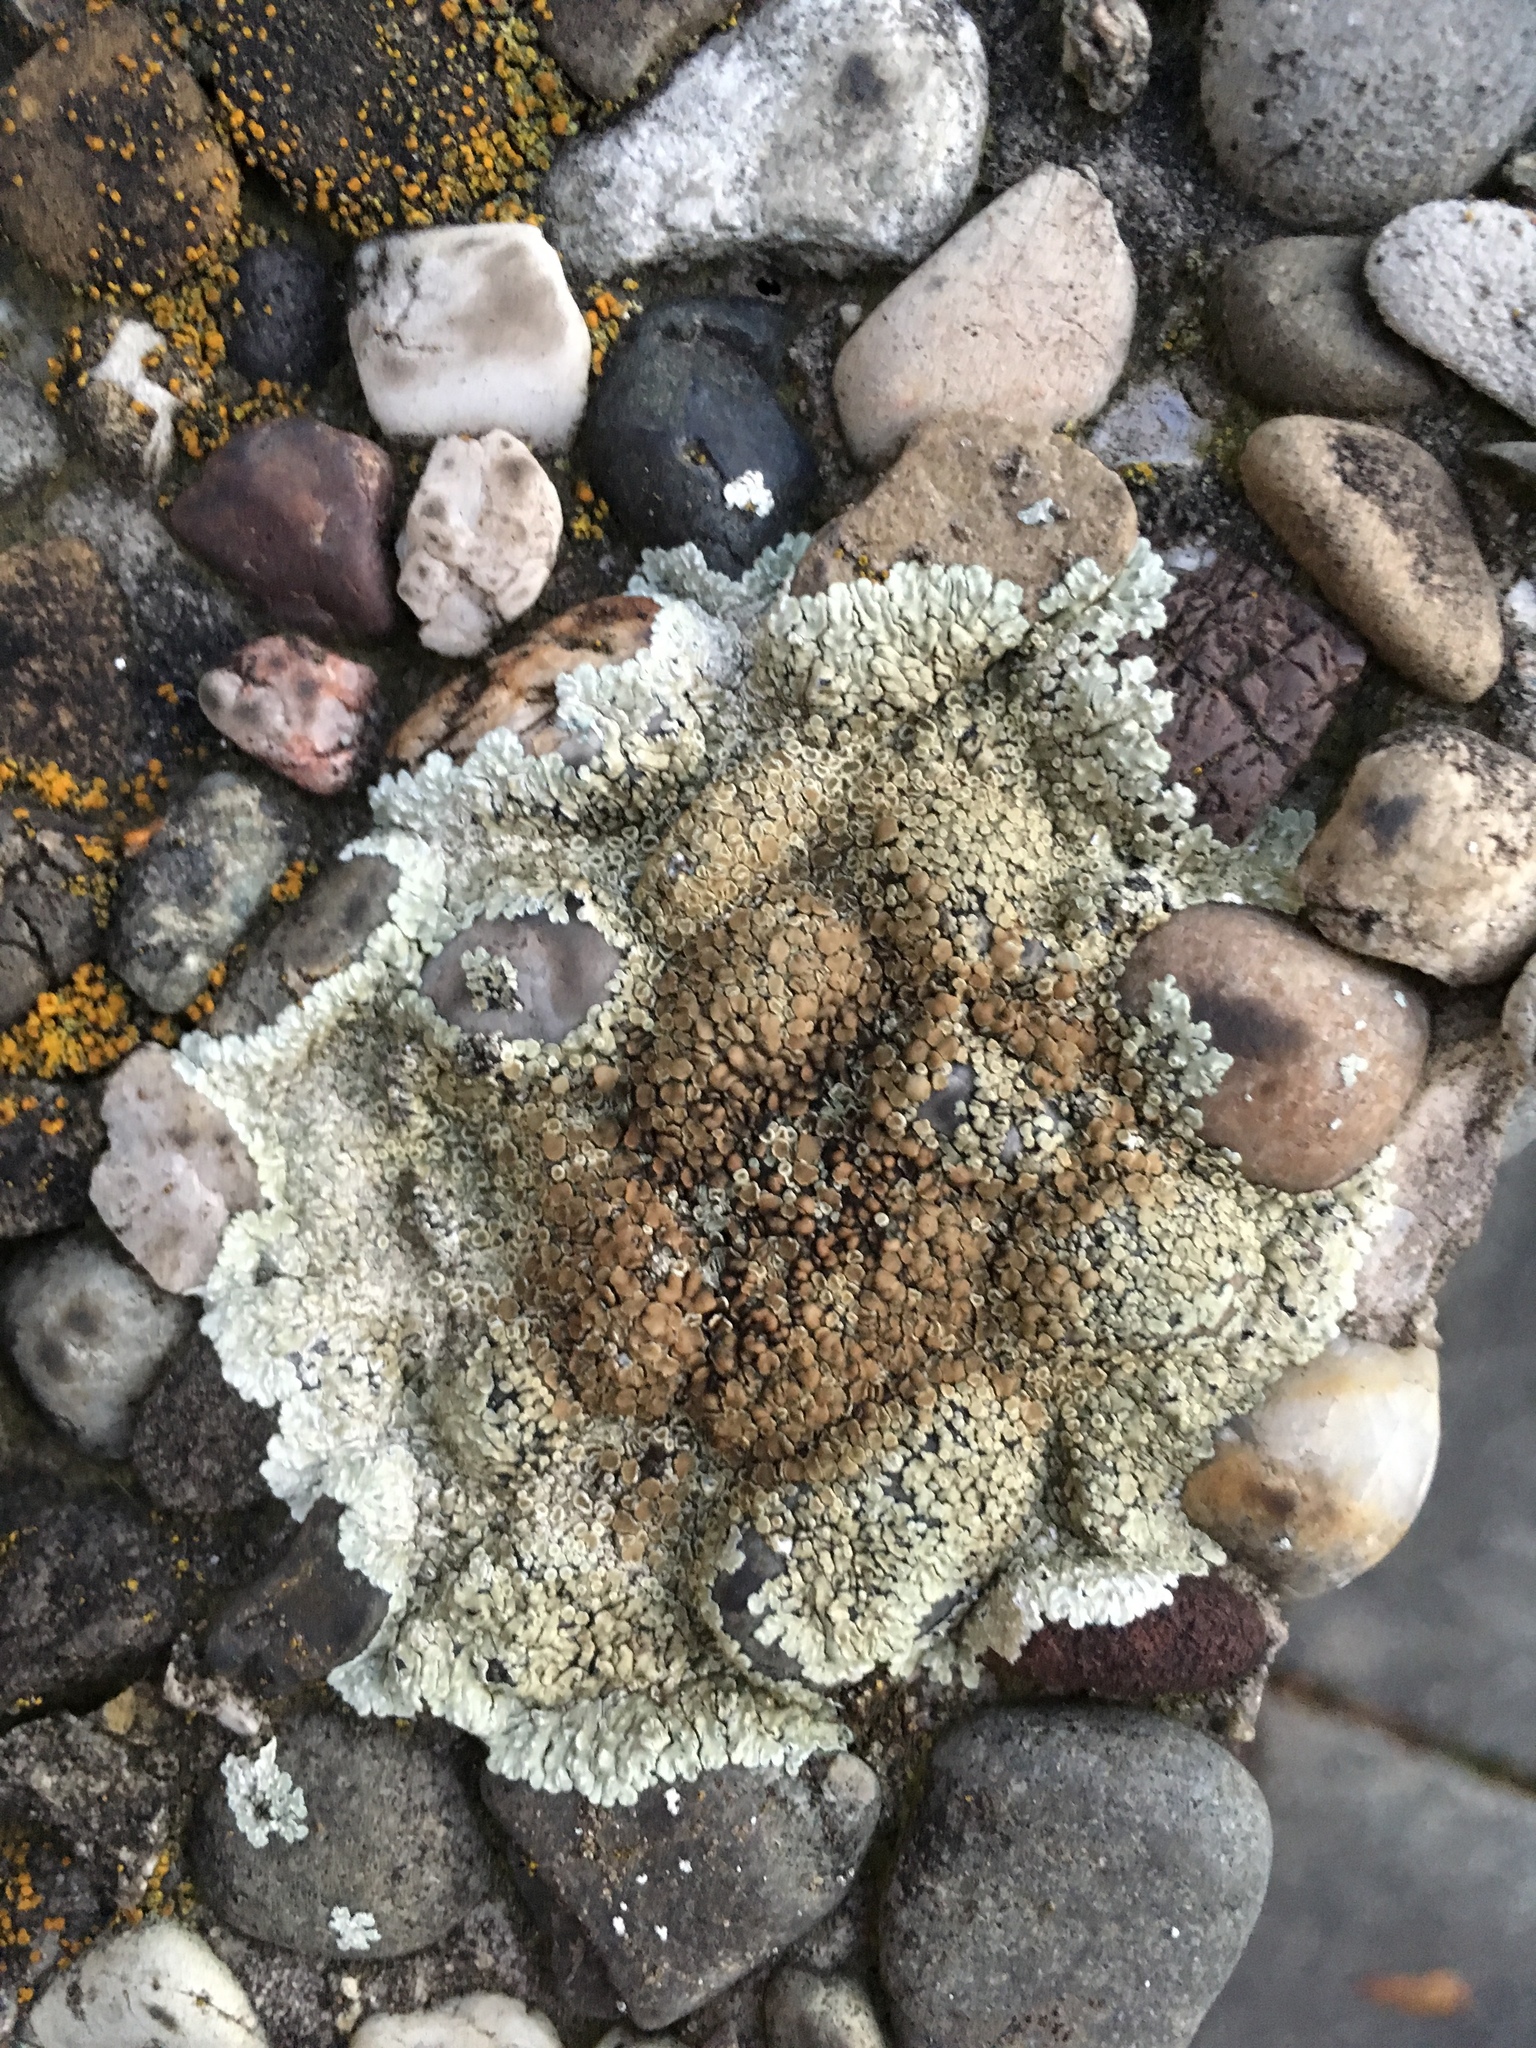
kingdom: Fungi
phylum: Ascomycota
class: Lecanoromycetes
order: Lecanorales
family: Lecanoraceae
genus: Protoparmeliopsis
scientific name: Protoparmeliopsis muralis
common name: Stonewall rim lichen
